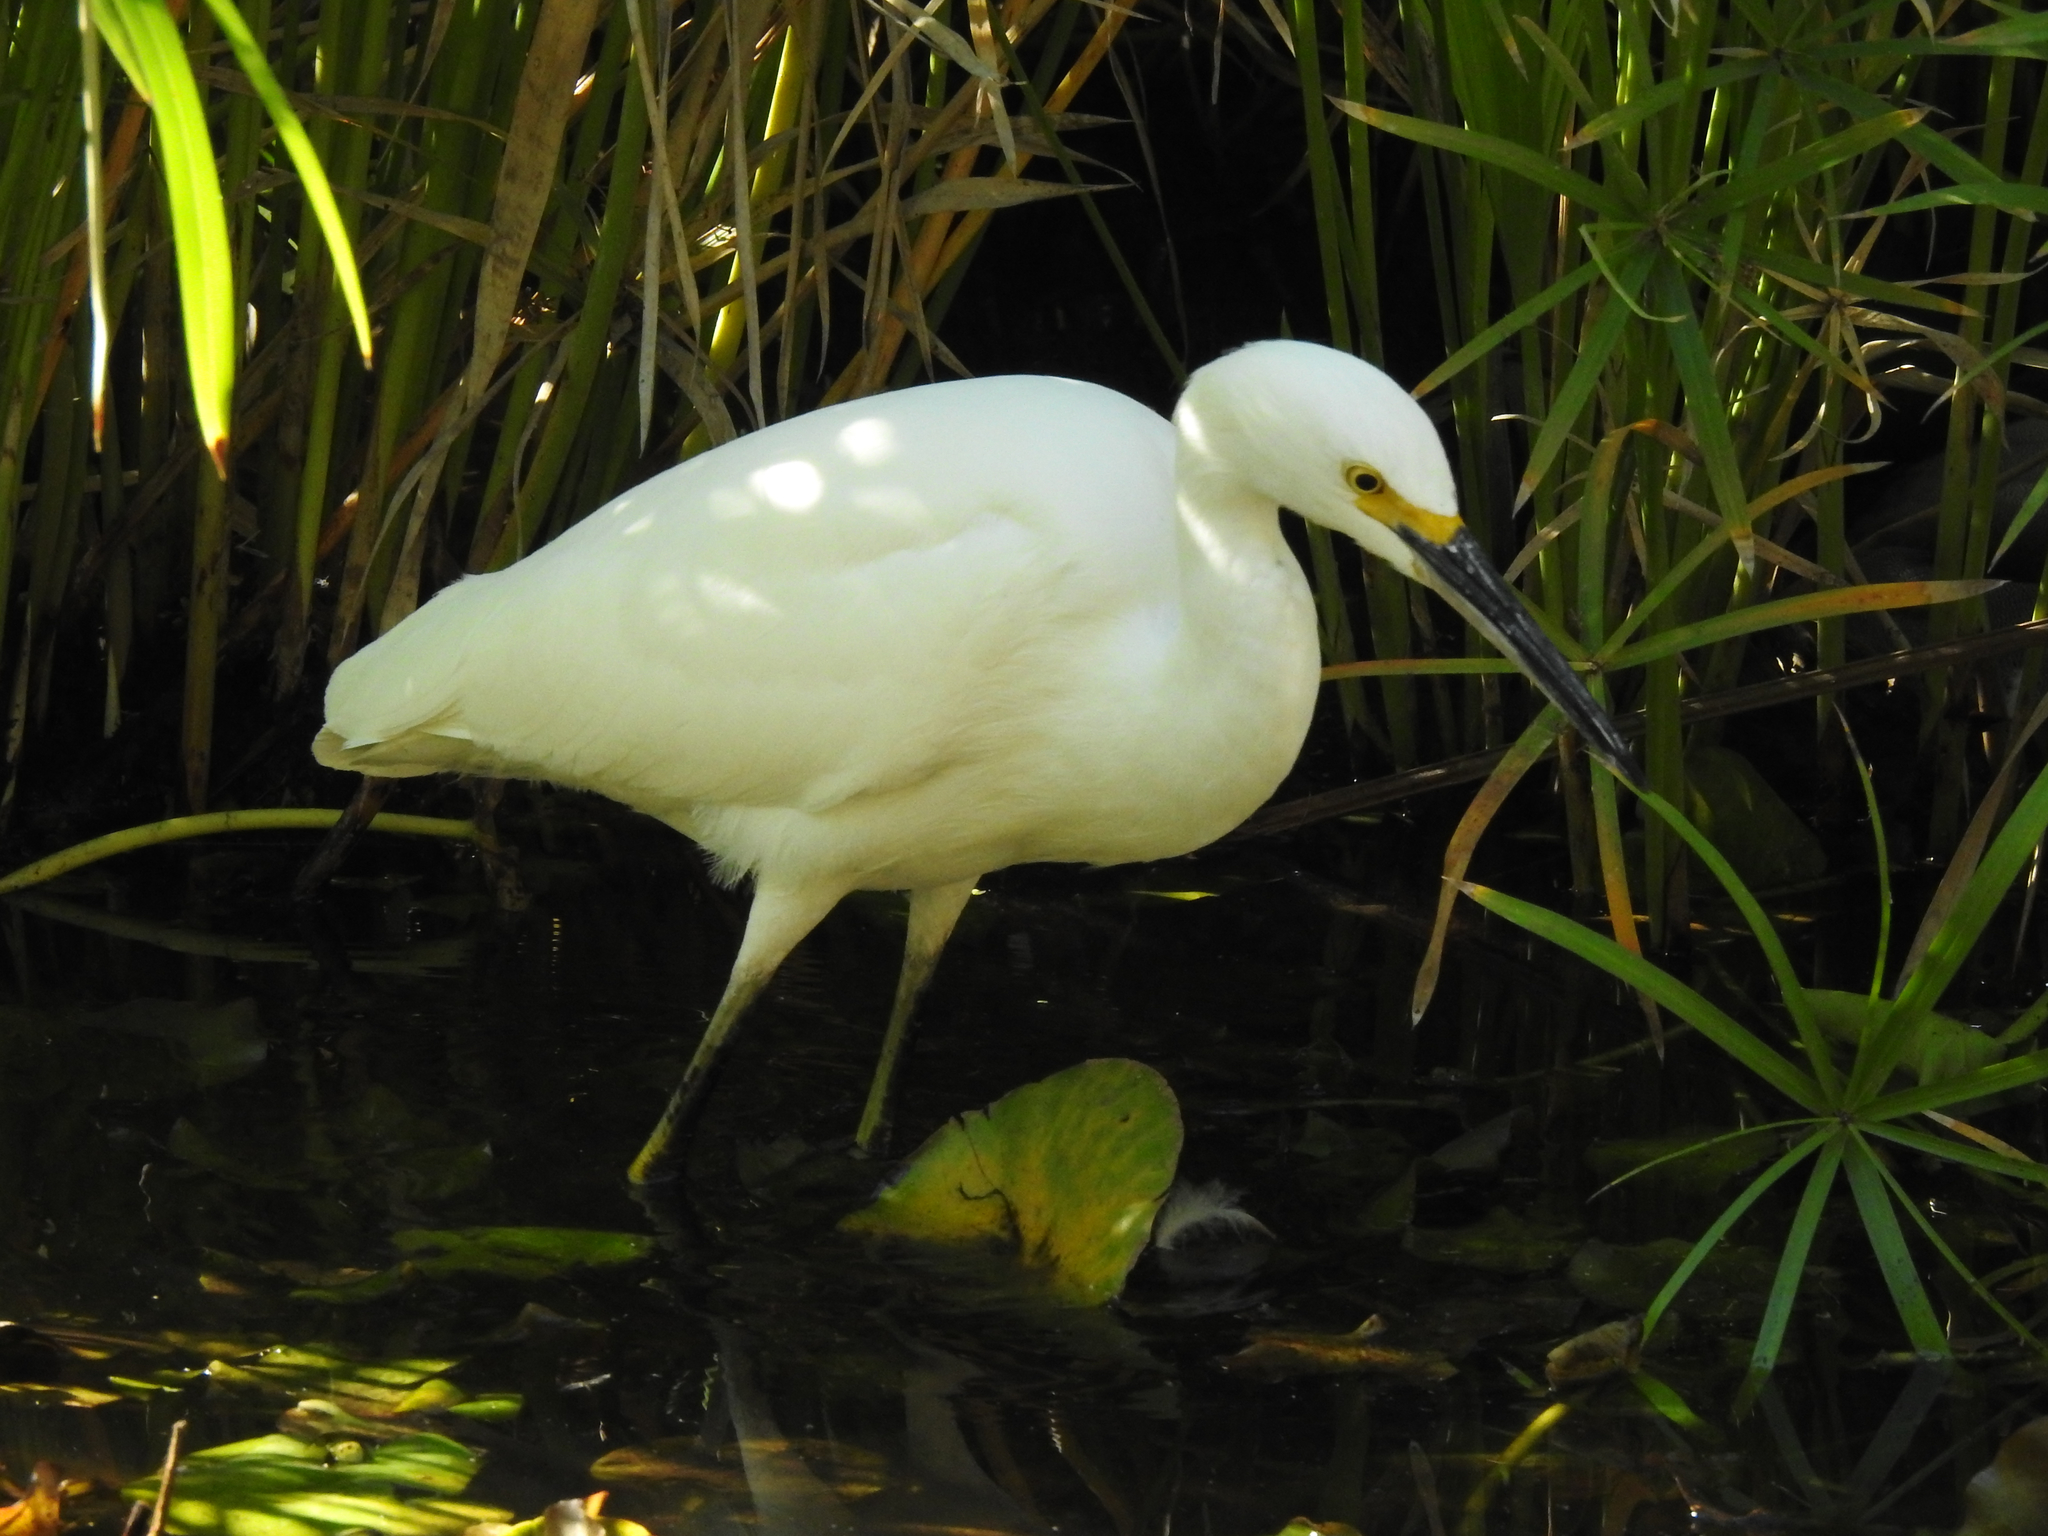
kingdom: Animalia
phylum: Chordata
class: Aves
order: Pelecaniformes
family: Ardeidae
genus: Egretta
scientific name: Egretta thula
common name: Snowy egret
